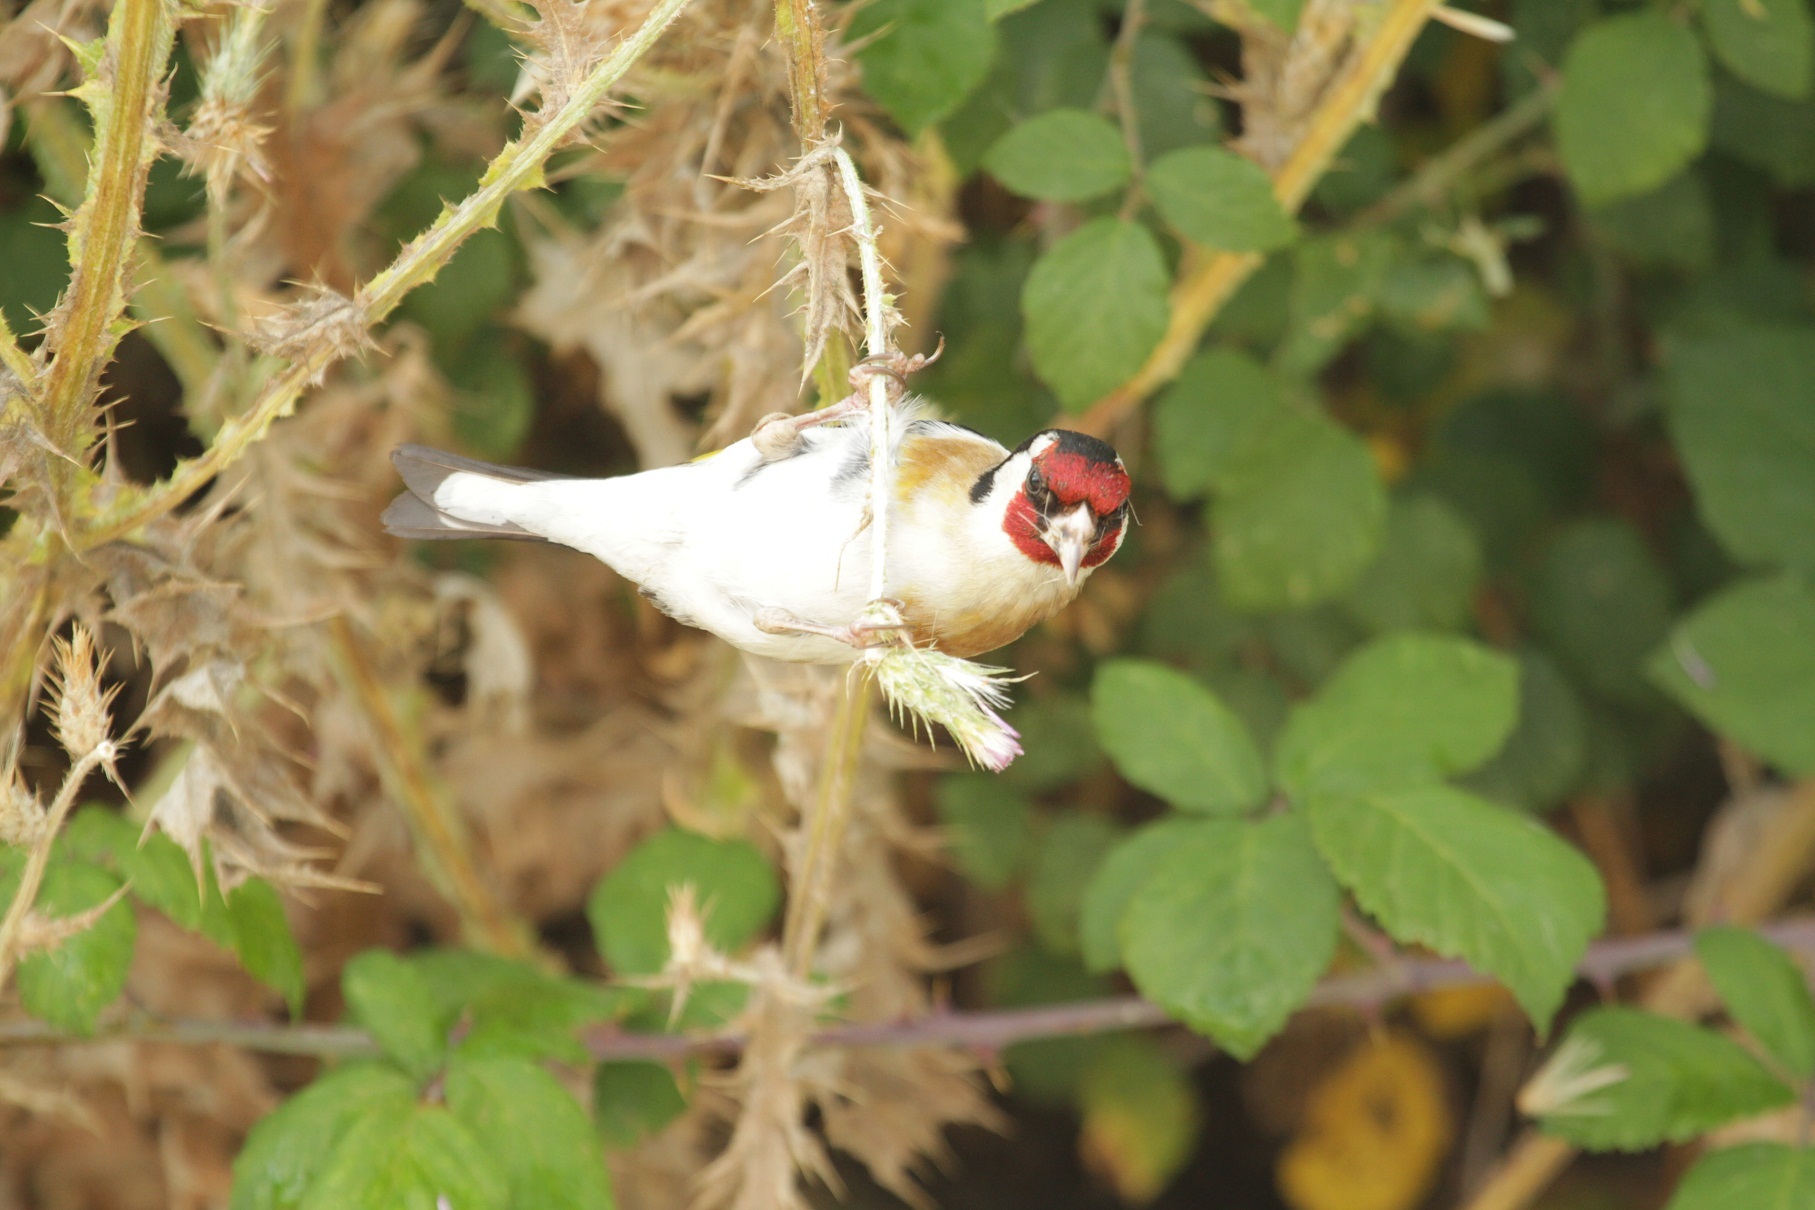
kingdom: Animalia
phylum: Chordata
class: Aves
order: Passeriformes
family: Fringillidae
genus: Carduelis
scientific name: Carduelis carduelis
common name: European goldfinch
